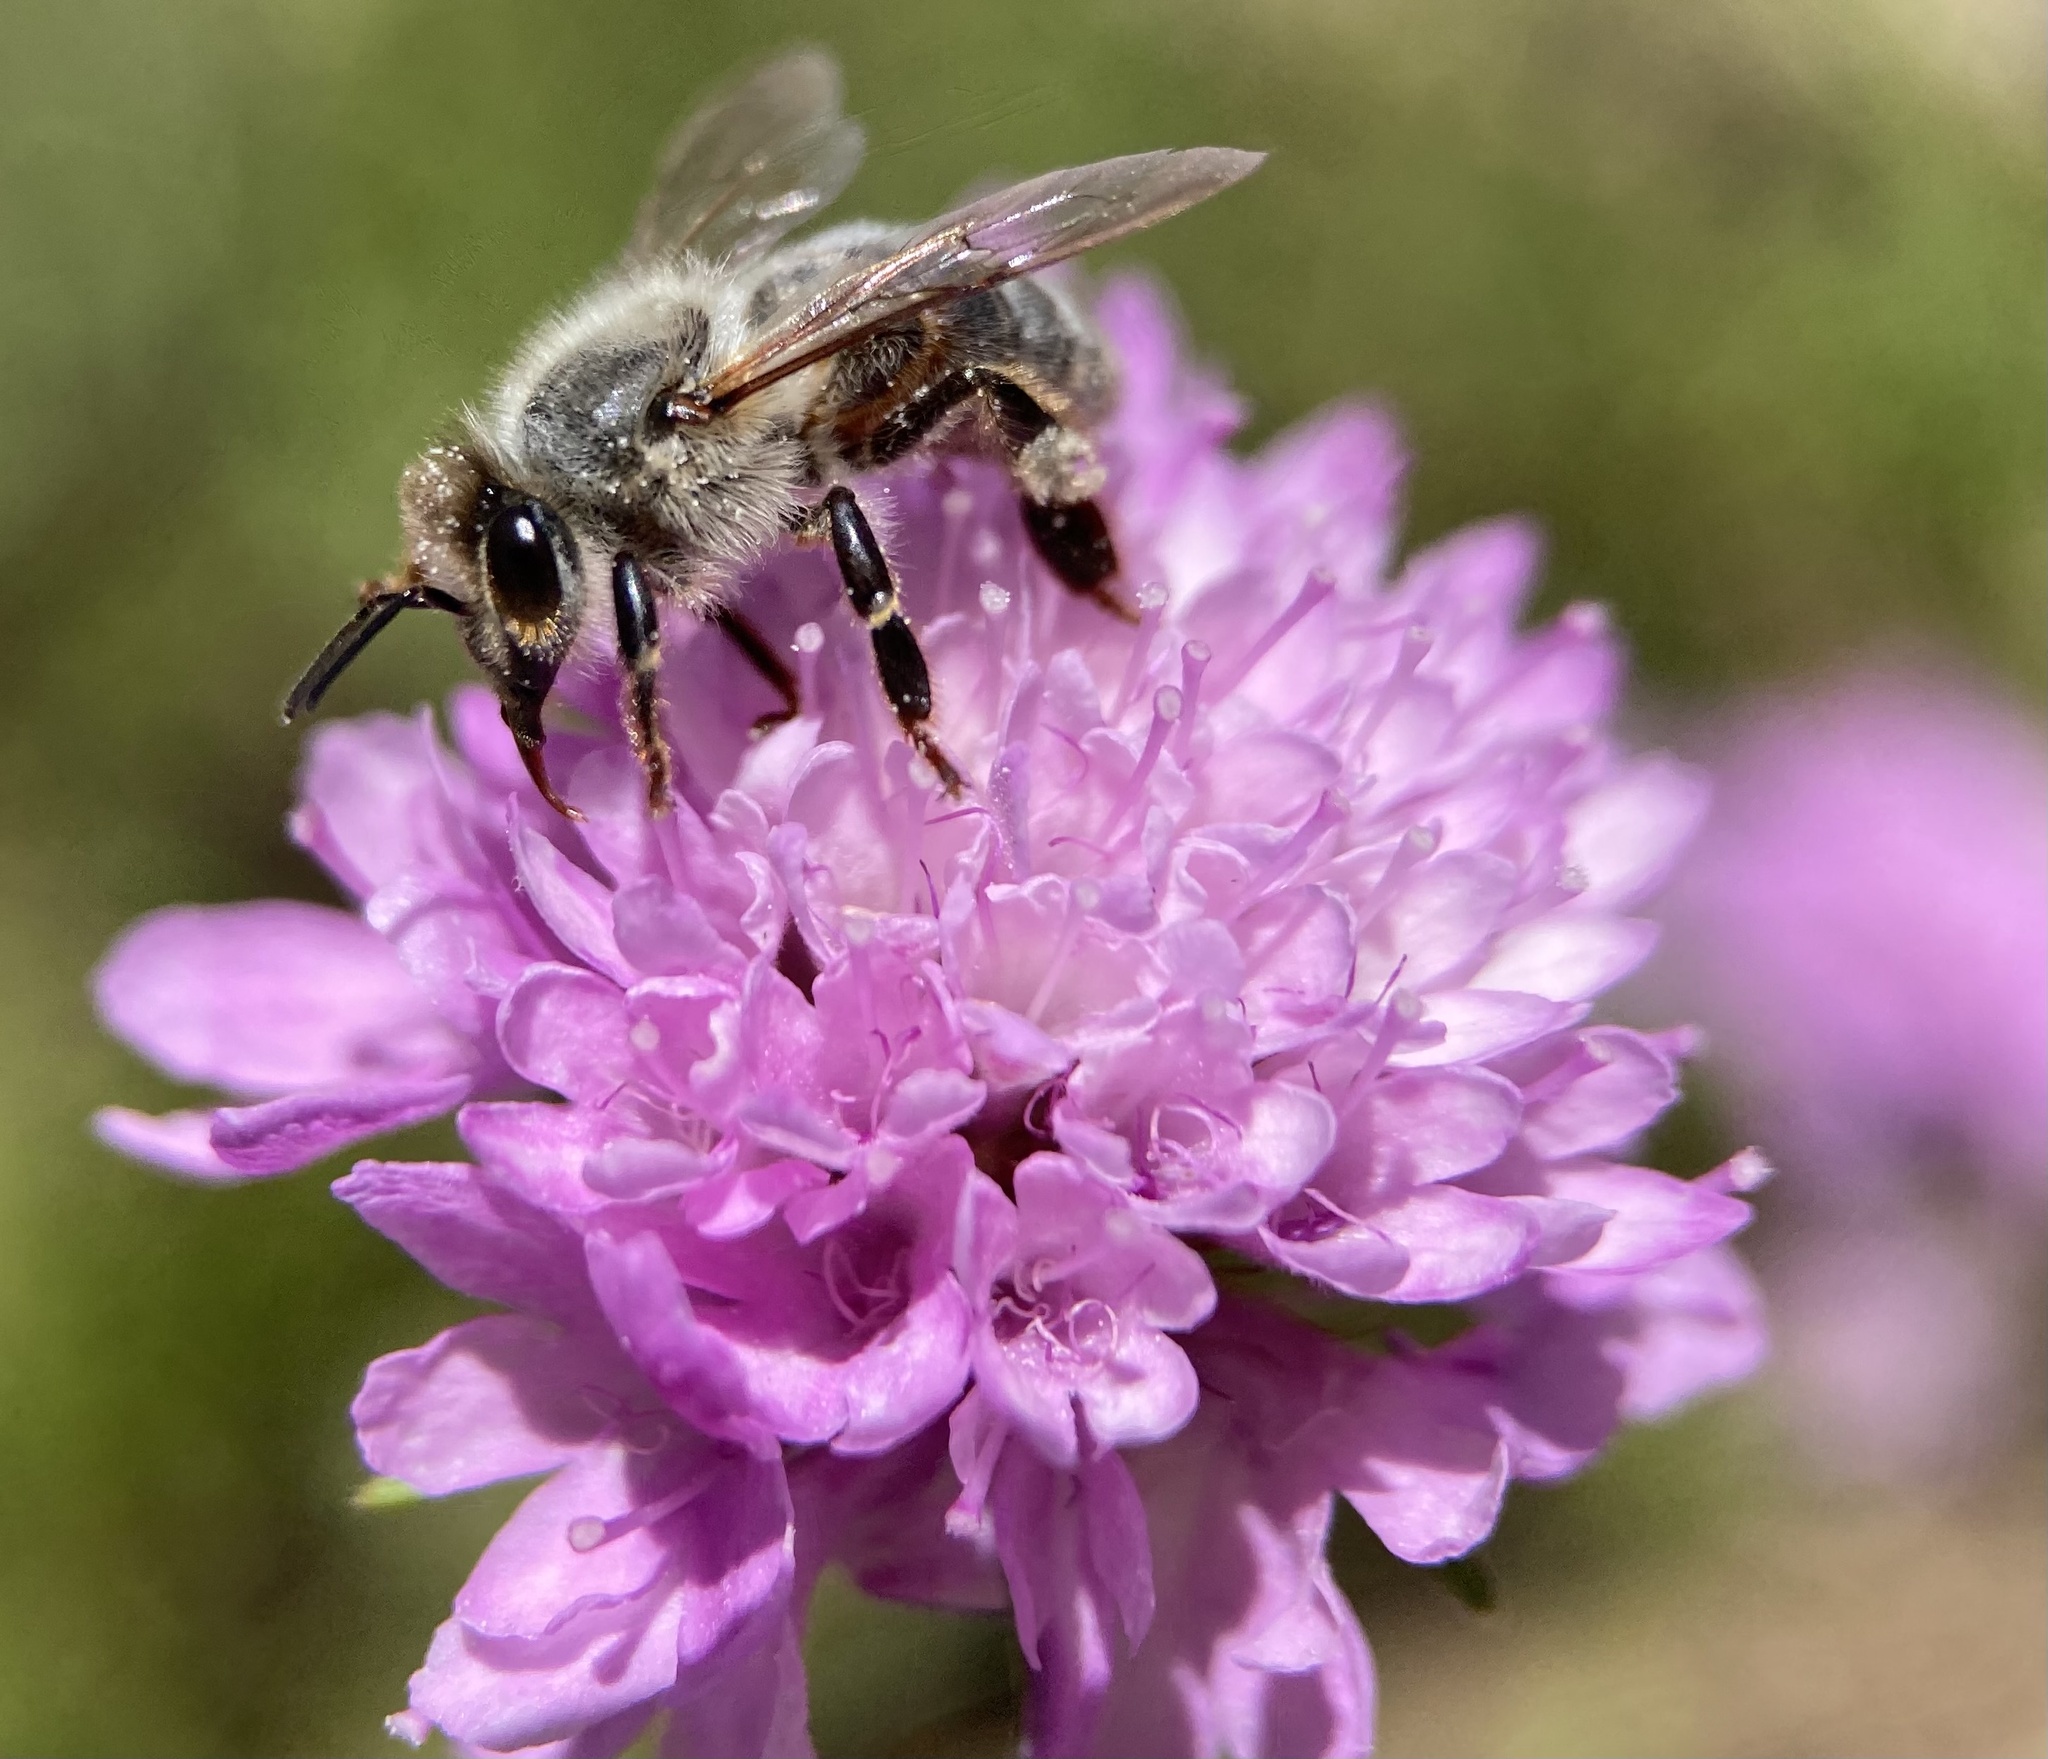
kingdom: Animalia
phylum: Arthropoda
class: Insecta
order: Hymenoptera
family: Apidae
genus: Apis
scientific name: Apis mellifera
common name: Honey bee
